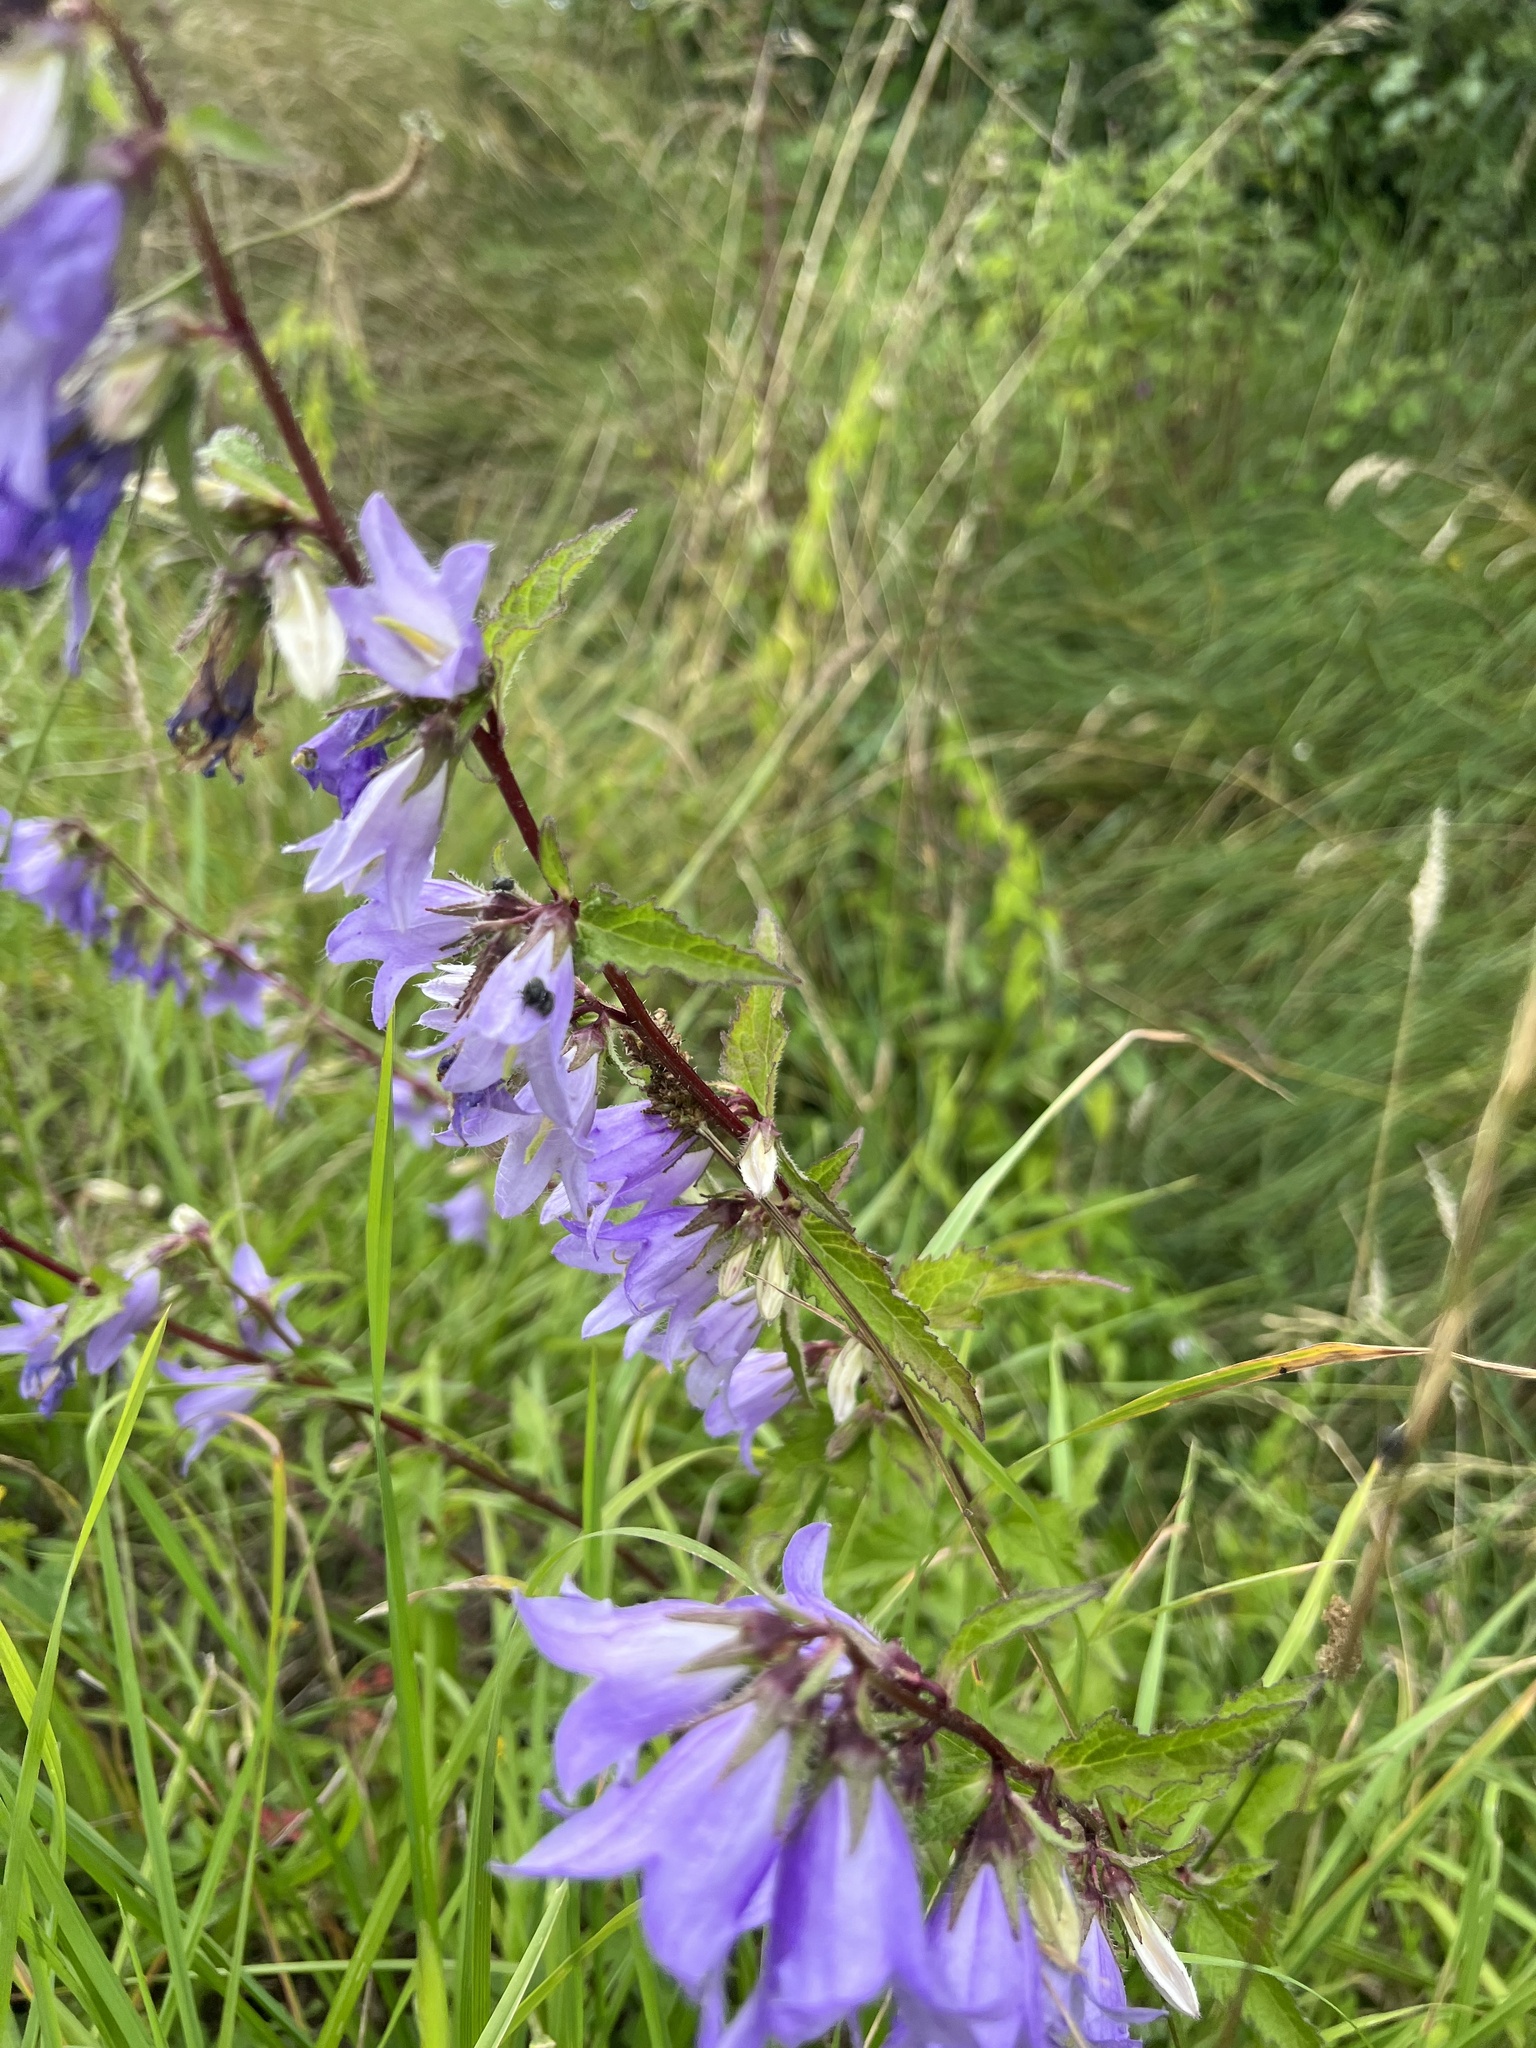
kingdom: Plantae
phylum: Tracheophyta
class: Magnoliopsida
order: Asterales
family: Campanulaceae
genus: Campanula
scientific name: Campanula trachelium
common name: Nettle-leaved bellflower
